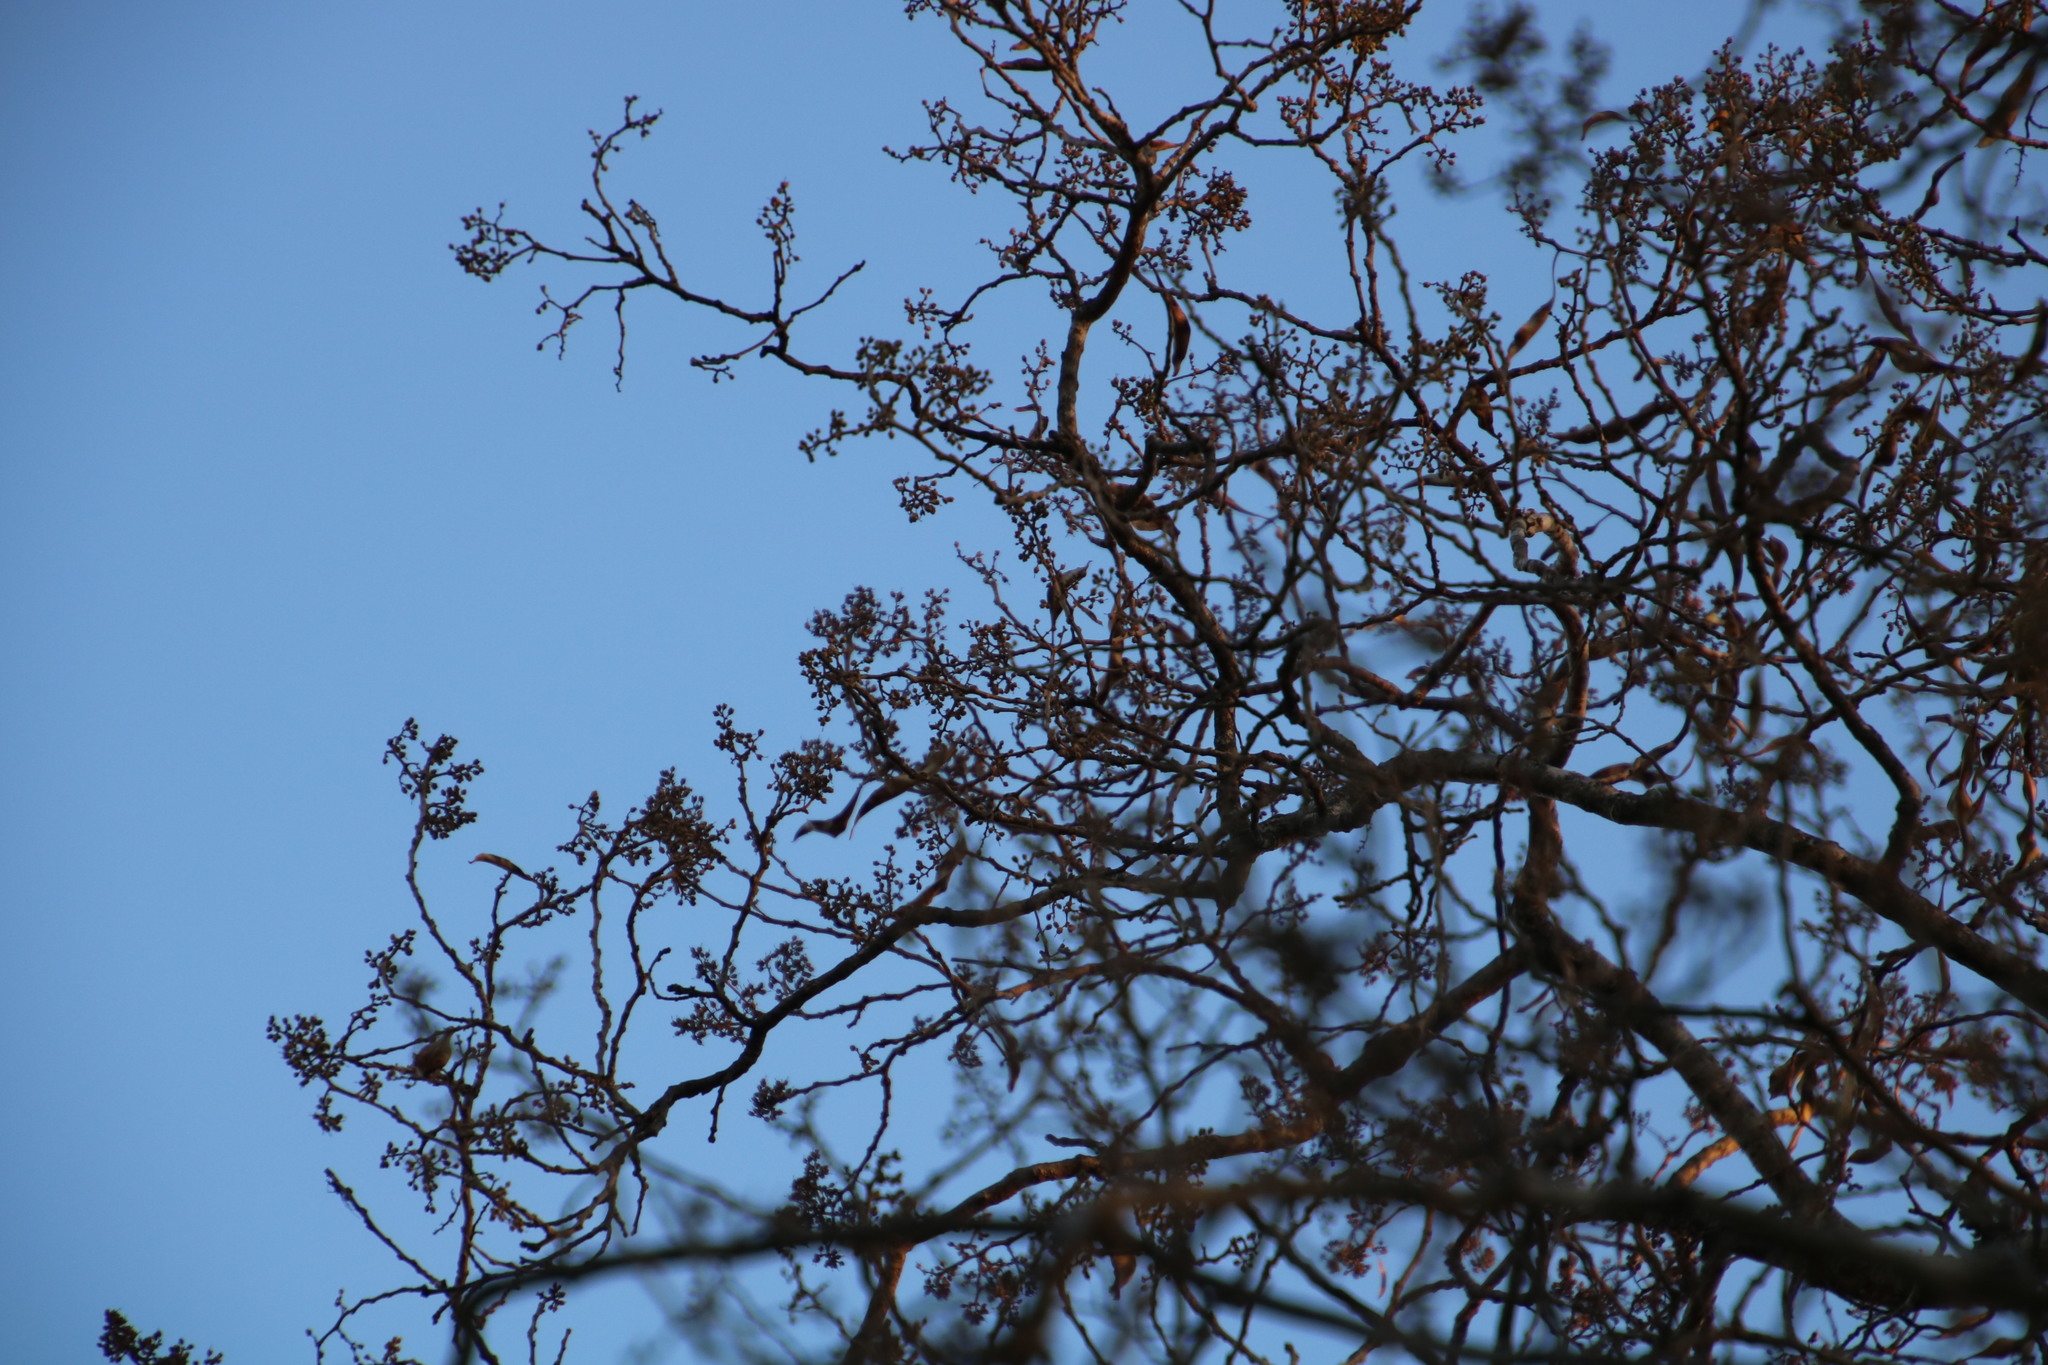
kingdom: Plantae
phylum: Tracheophyta
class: Magnoliopsida
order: Myrtales
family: Myrtaceae
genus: Heteropyxis
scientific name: Heteropyxis natalensis
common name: Lavender tree
